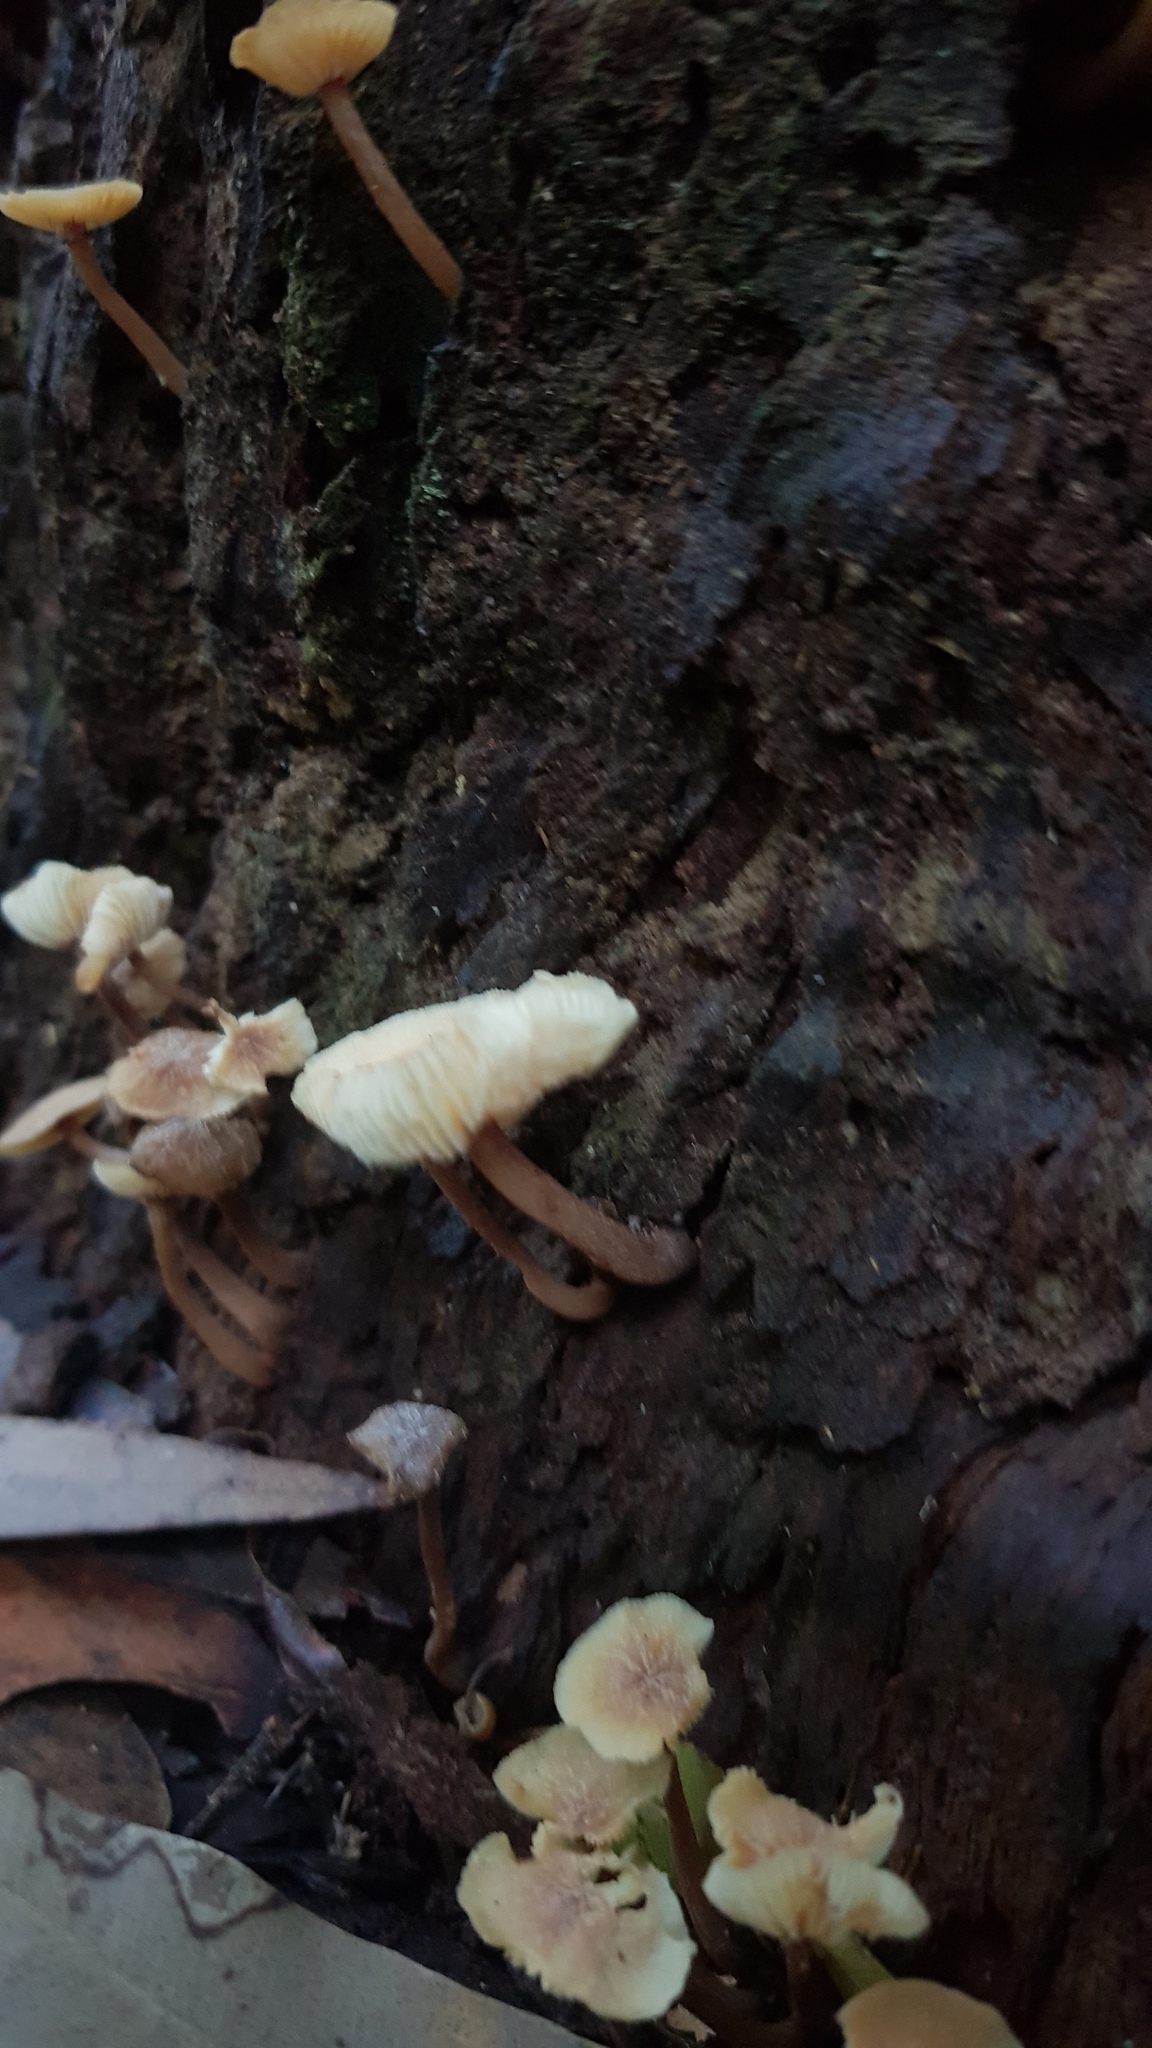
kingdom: Fungi
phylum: Basidiomycota
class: Agaricomycetes
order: Agaricales
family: Omphalotaceae
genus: Rhodocollybia
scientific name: Rhodocollybia
